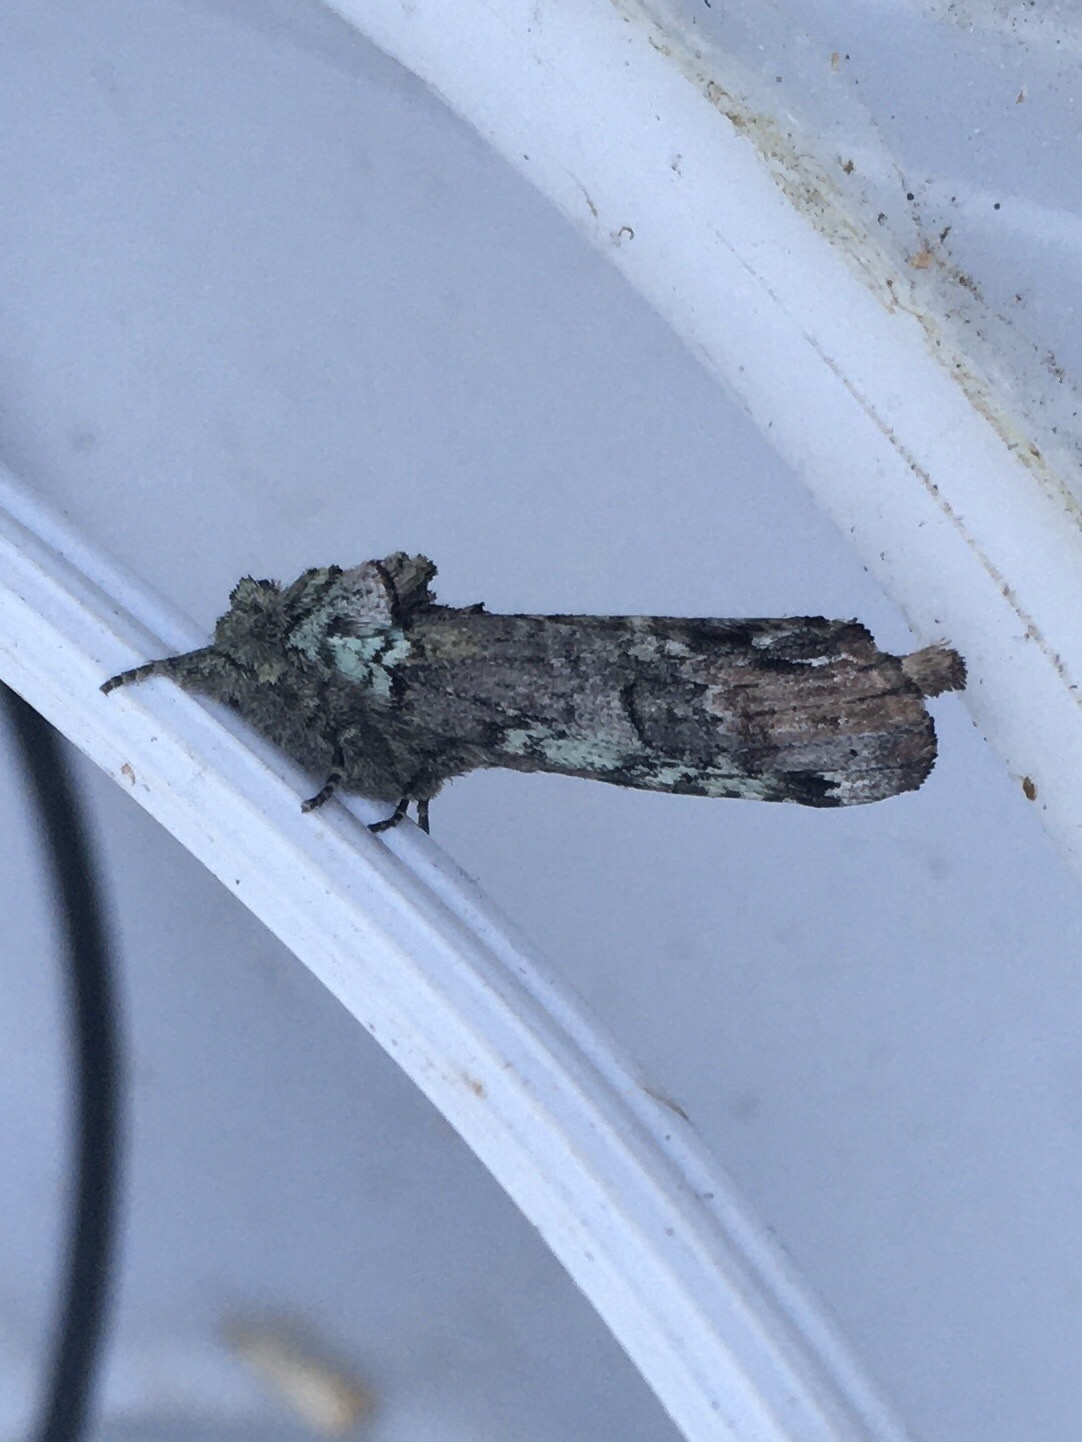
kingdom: Animalia
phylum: Arthropoda
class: Insecta
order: Lepidoptera
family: Notodontidae
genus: Schizura
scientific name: Schizura
